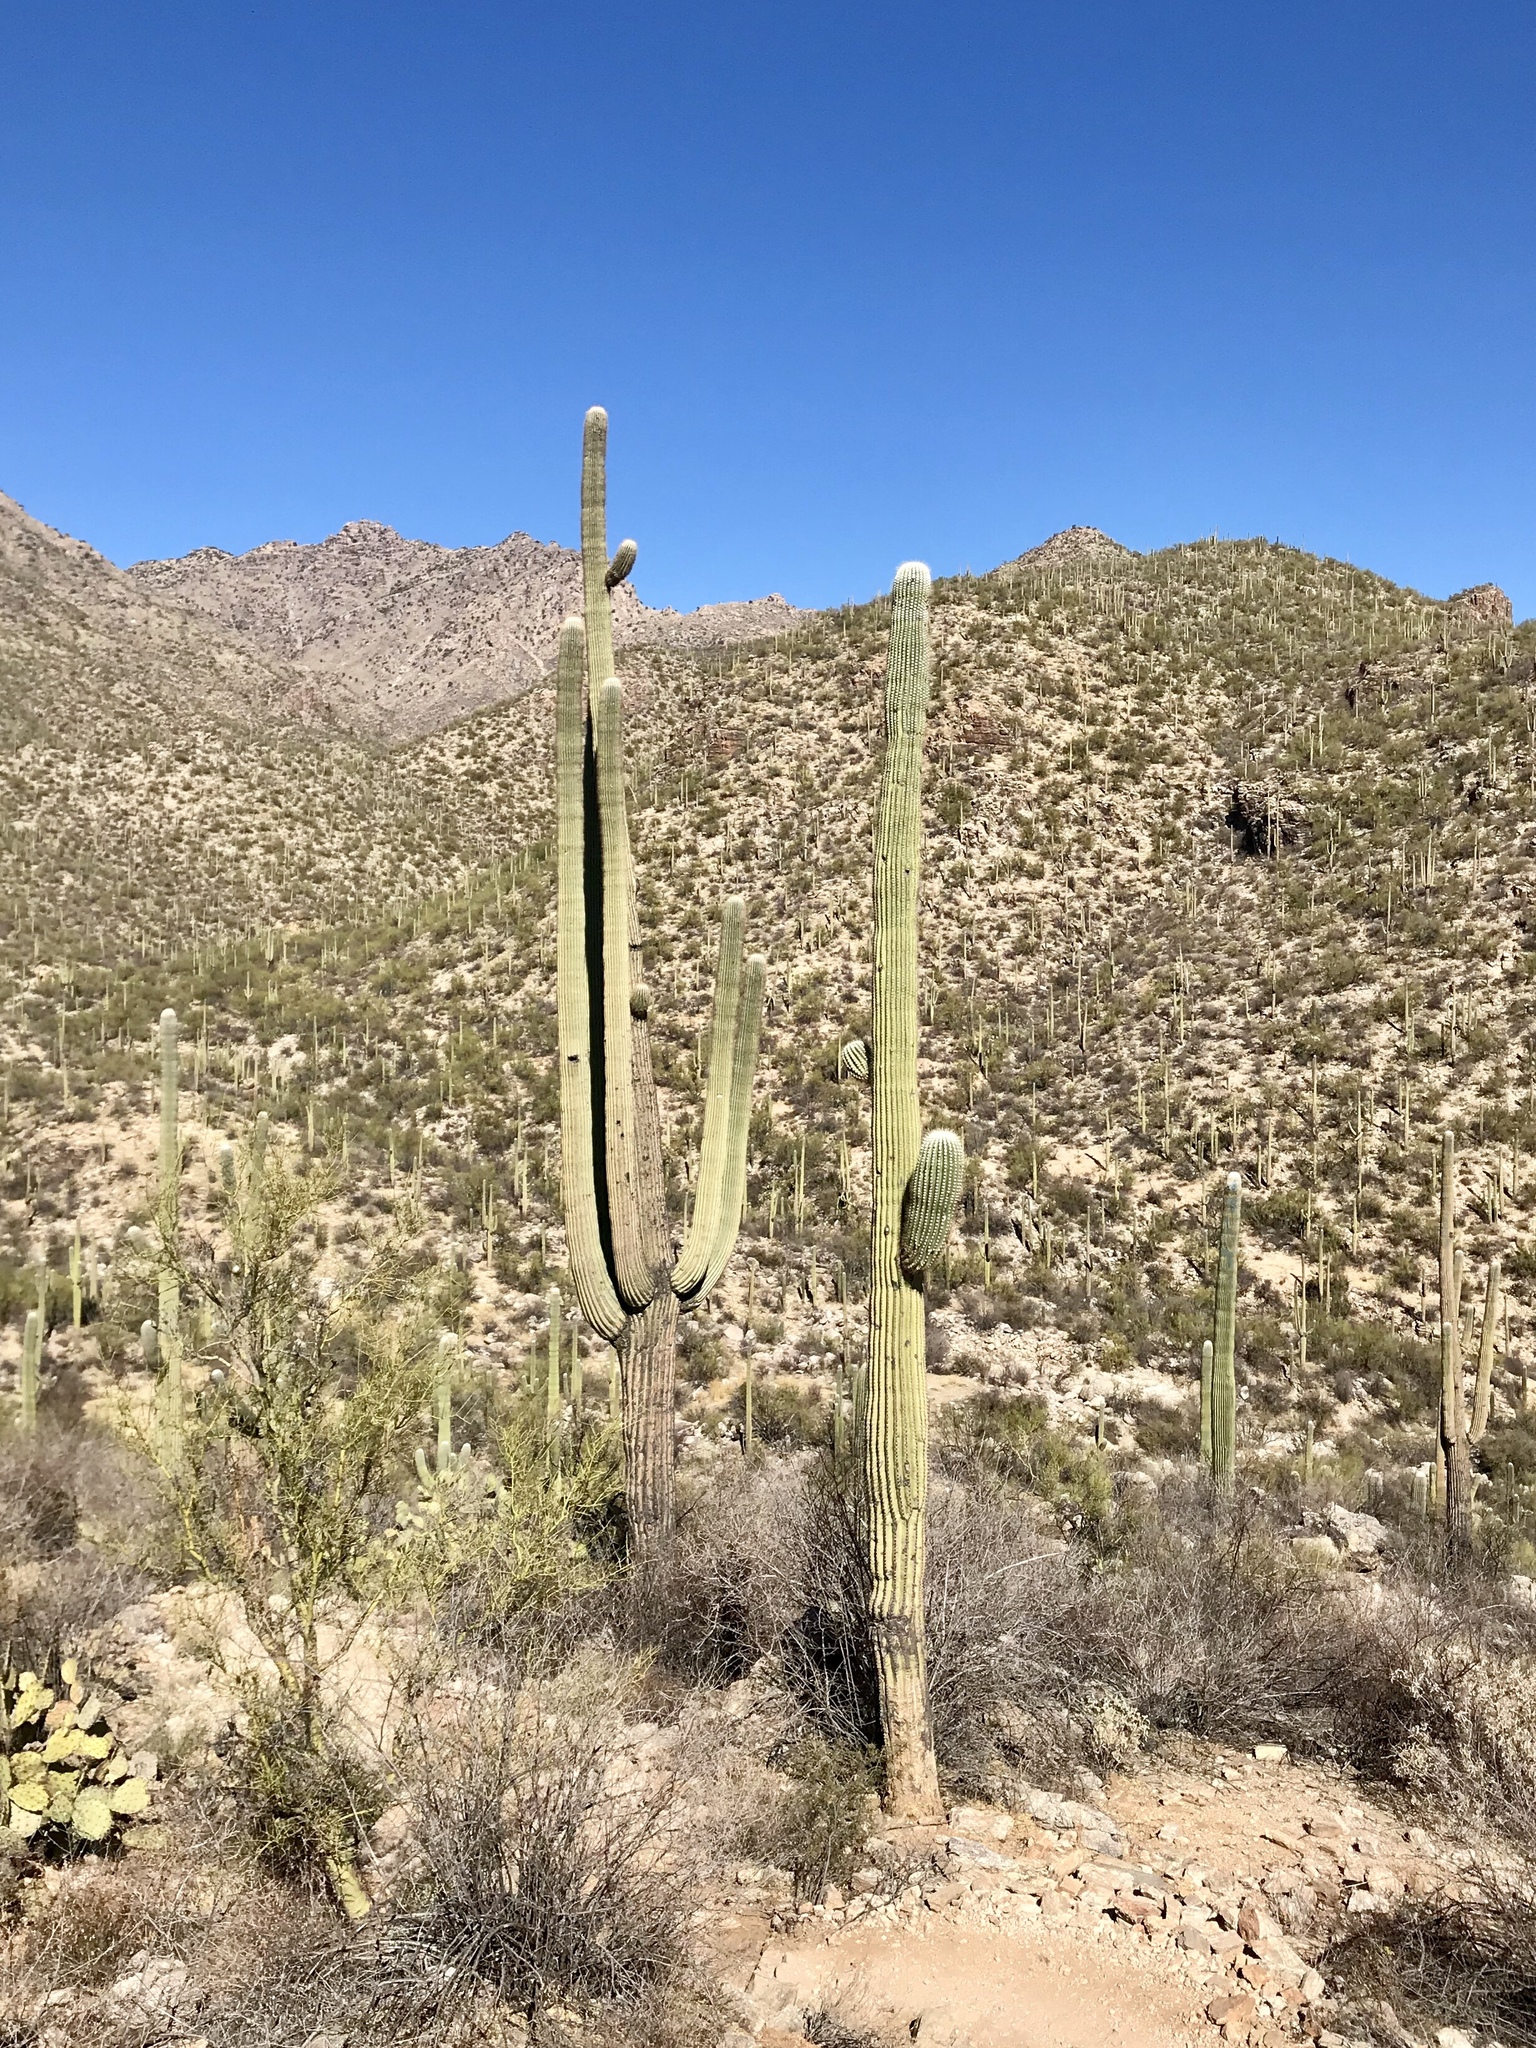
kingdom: Plantae
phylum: Tracheophyta
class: Magnoliopsida
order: Caryophyllales
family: Cactaceae
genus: Carnegiea
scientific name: Carnegiea gigantea
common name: Saguaro
